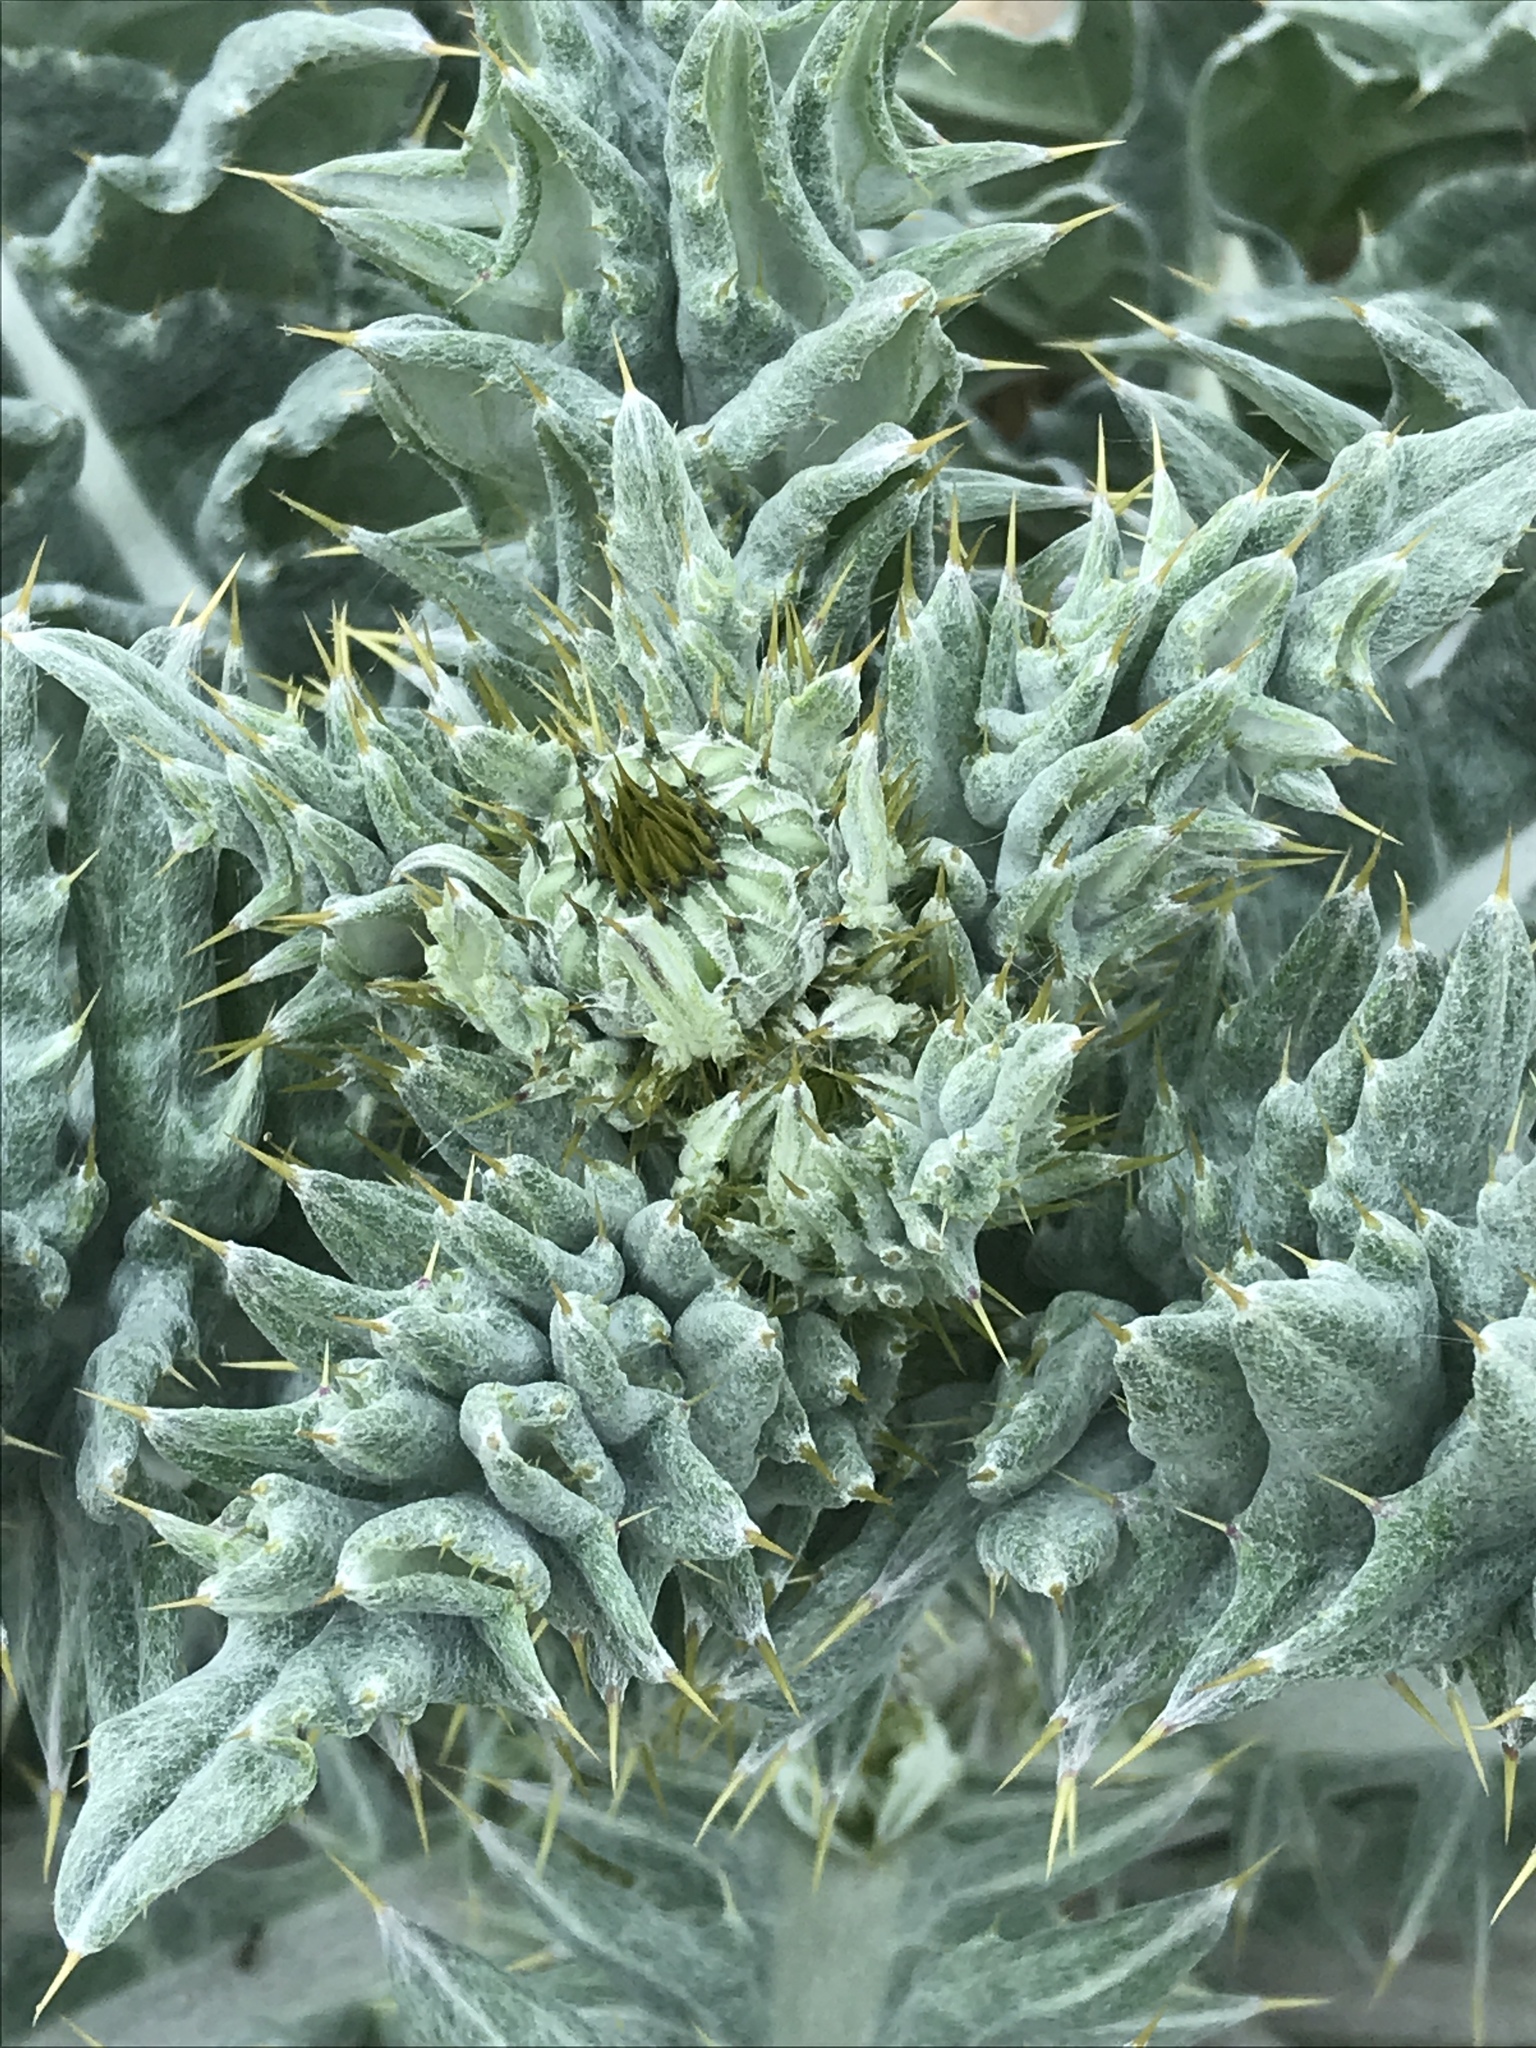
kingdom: Plantae
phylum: Tracheophyta
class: Magnoliopsida
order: Asterales
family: Asteraceae
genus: Cirsium
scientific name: Cirsium ochrocentrum
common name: Yellow-spine thistle
